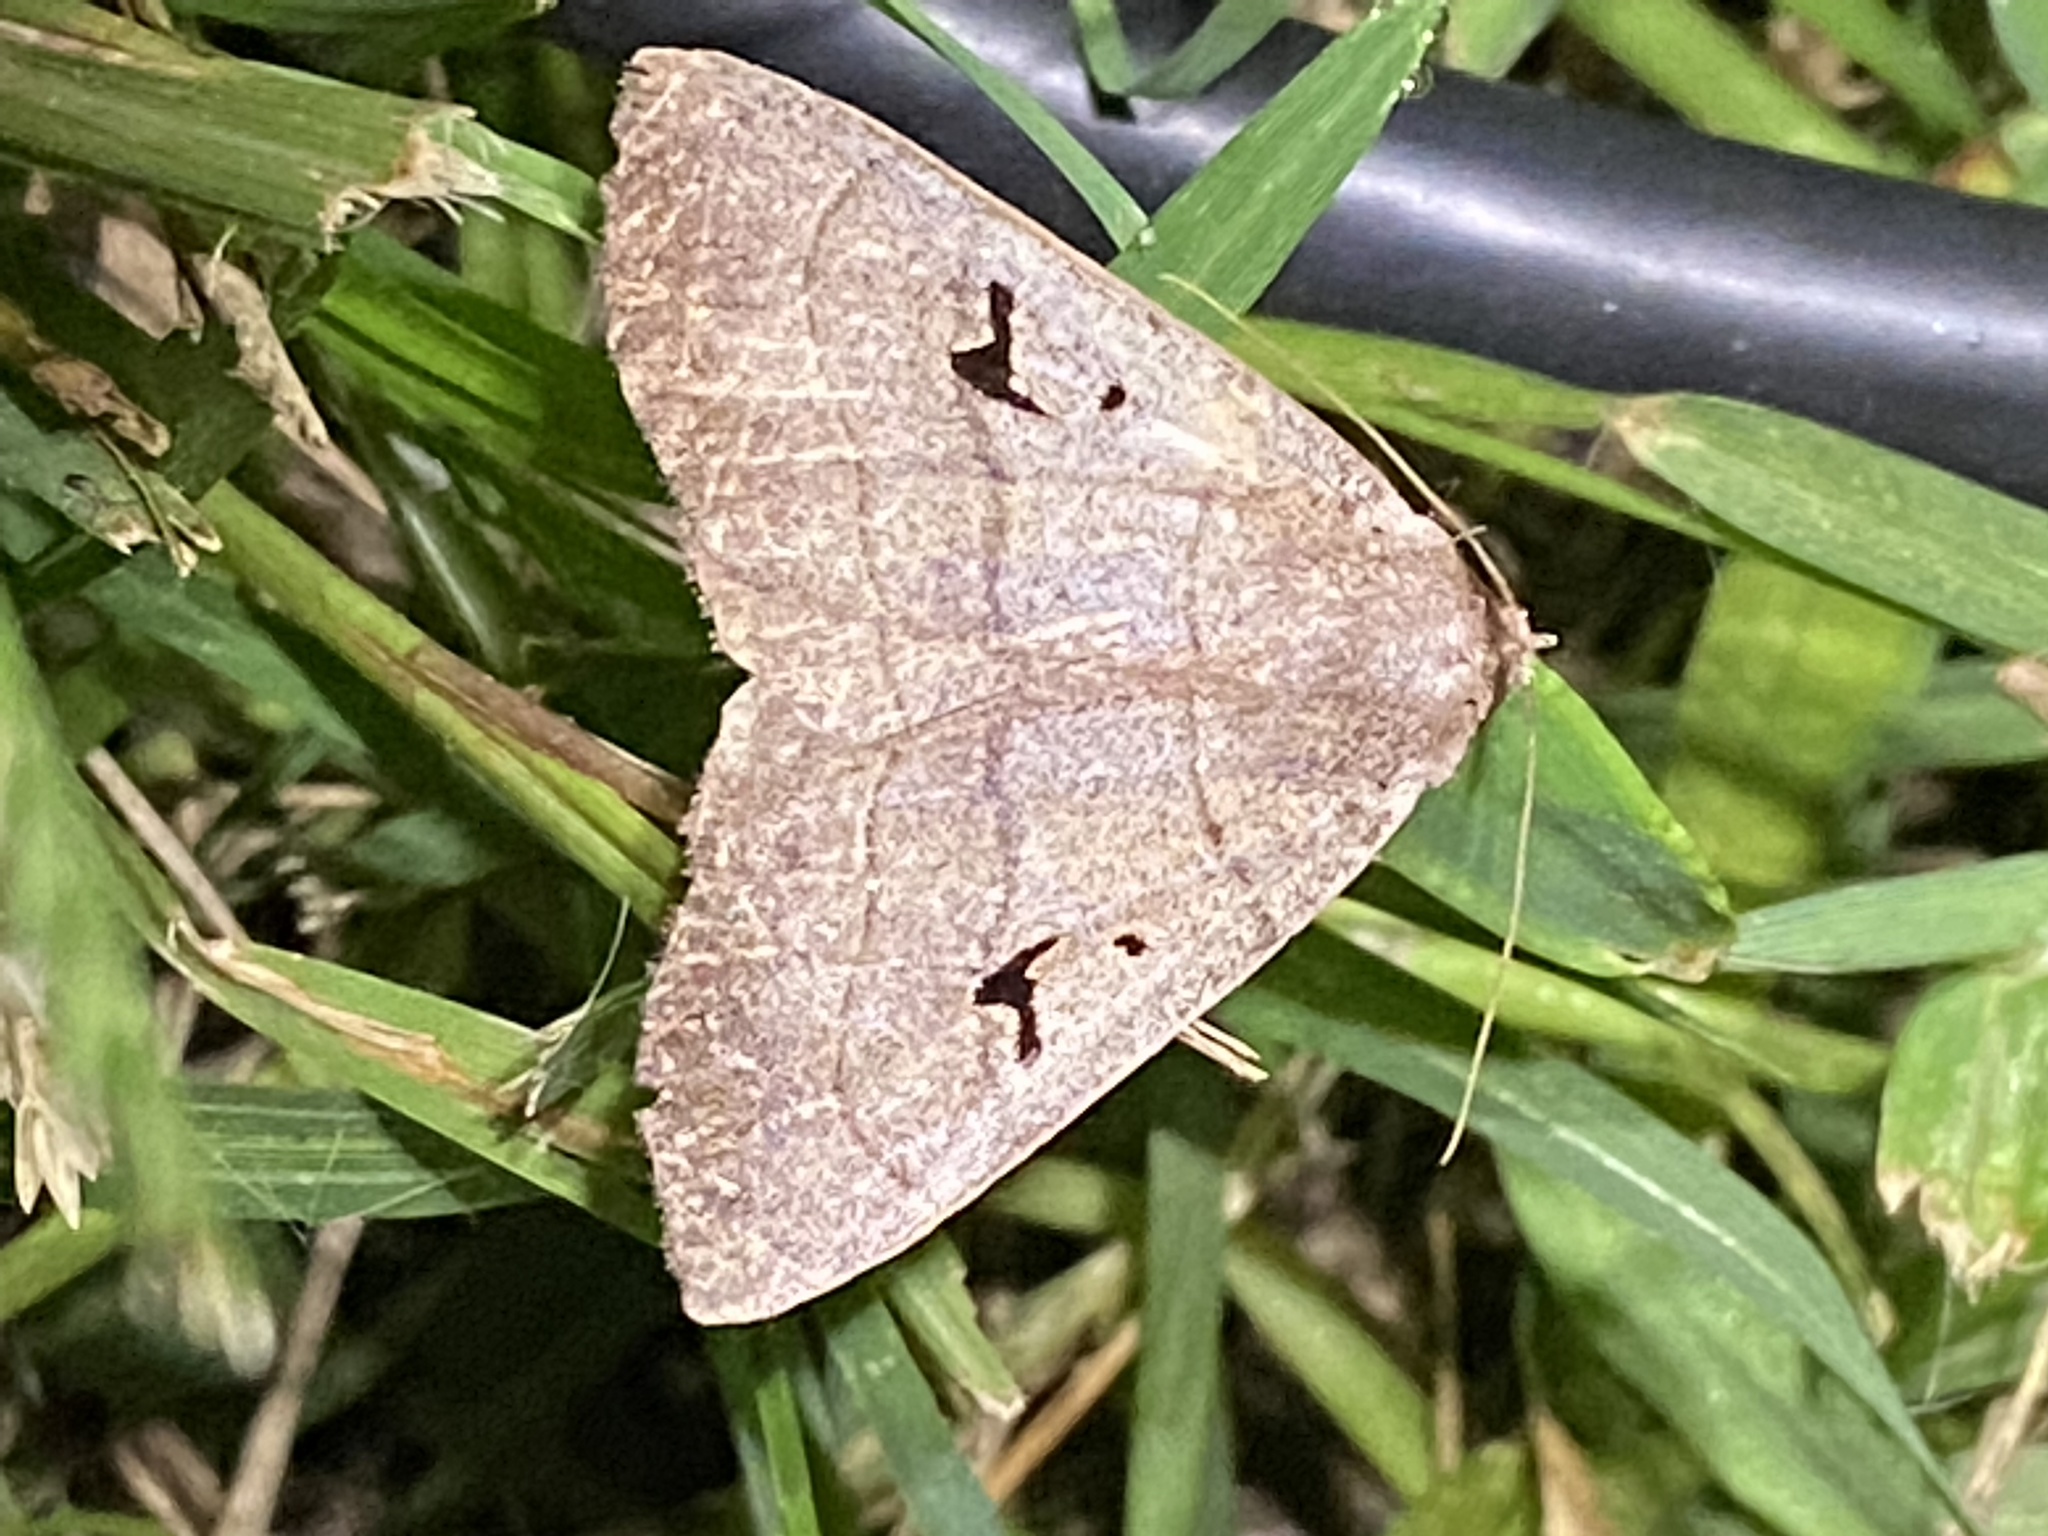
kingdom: Animalia
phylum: Arthropoda
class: Insecta
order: Lepidoptera
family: Erebidae
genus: Panopoda
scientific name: Panopoda carneicosta
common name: Brown panopoda moth
